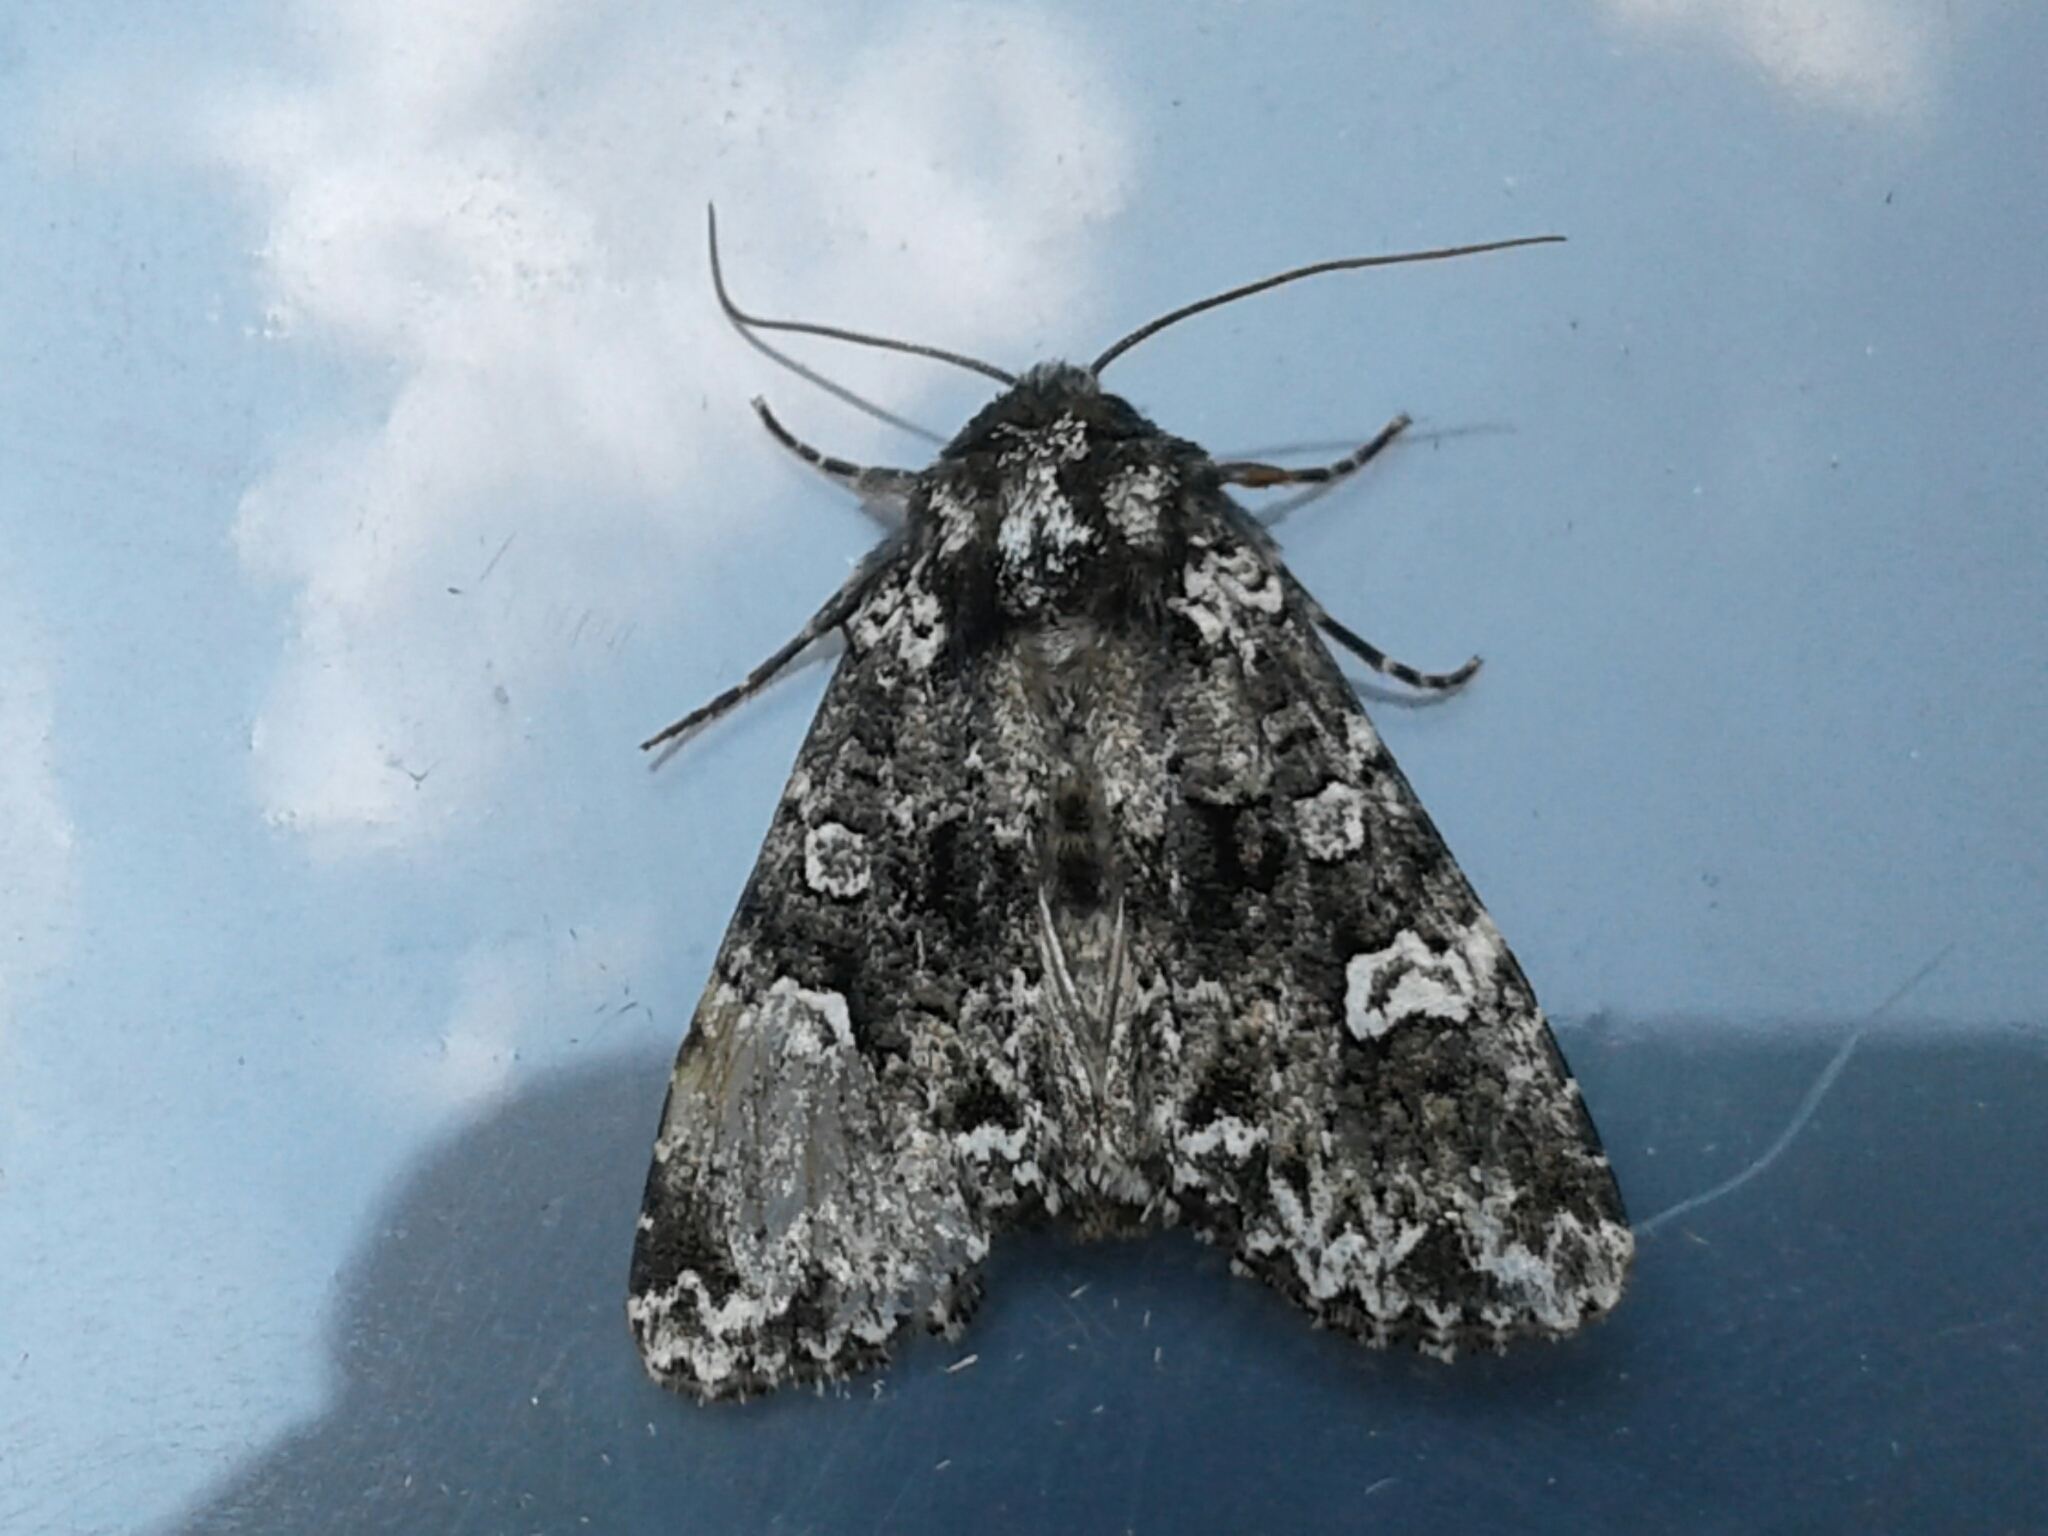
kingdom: Animalia
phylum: Arthropoda
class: Insecta
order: Lepidoptera
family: Noctuidae
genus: Melanchra
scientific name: Melanchra adjuncta
